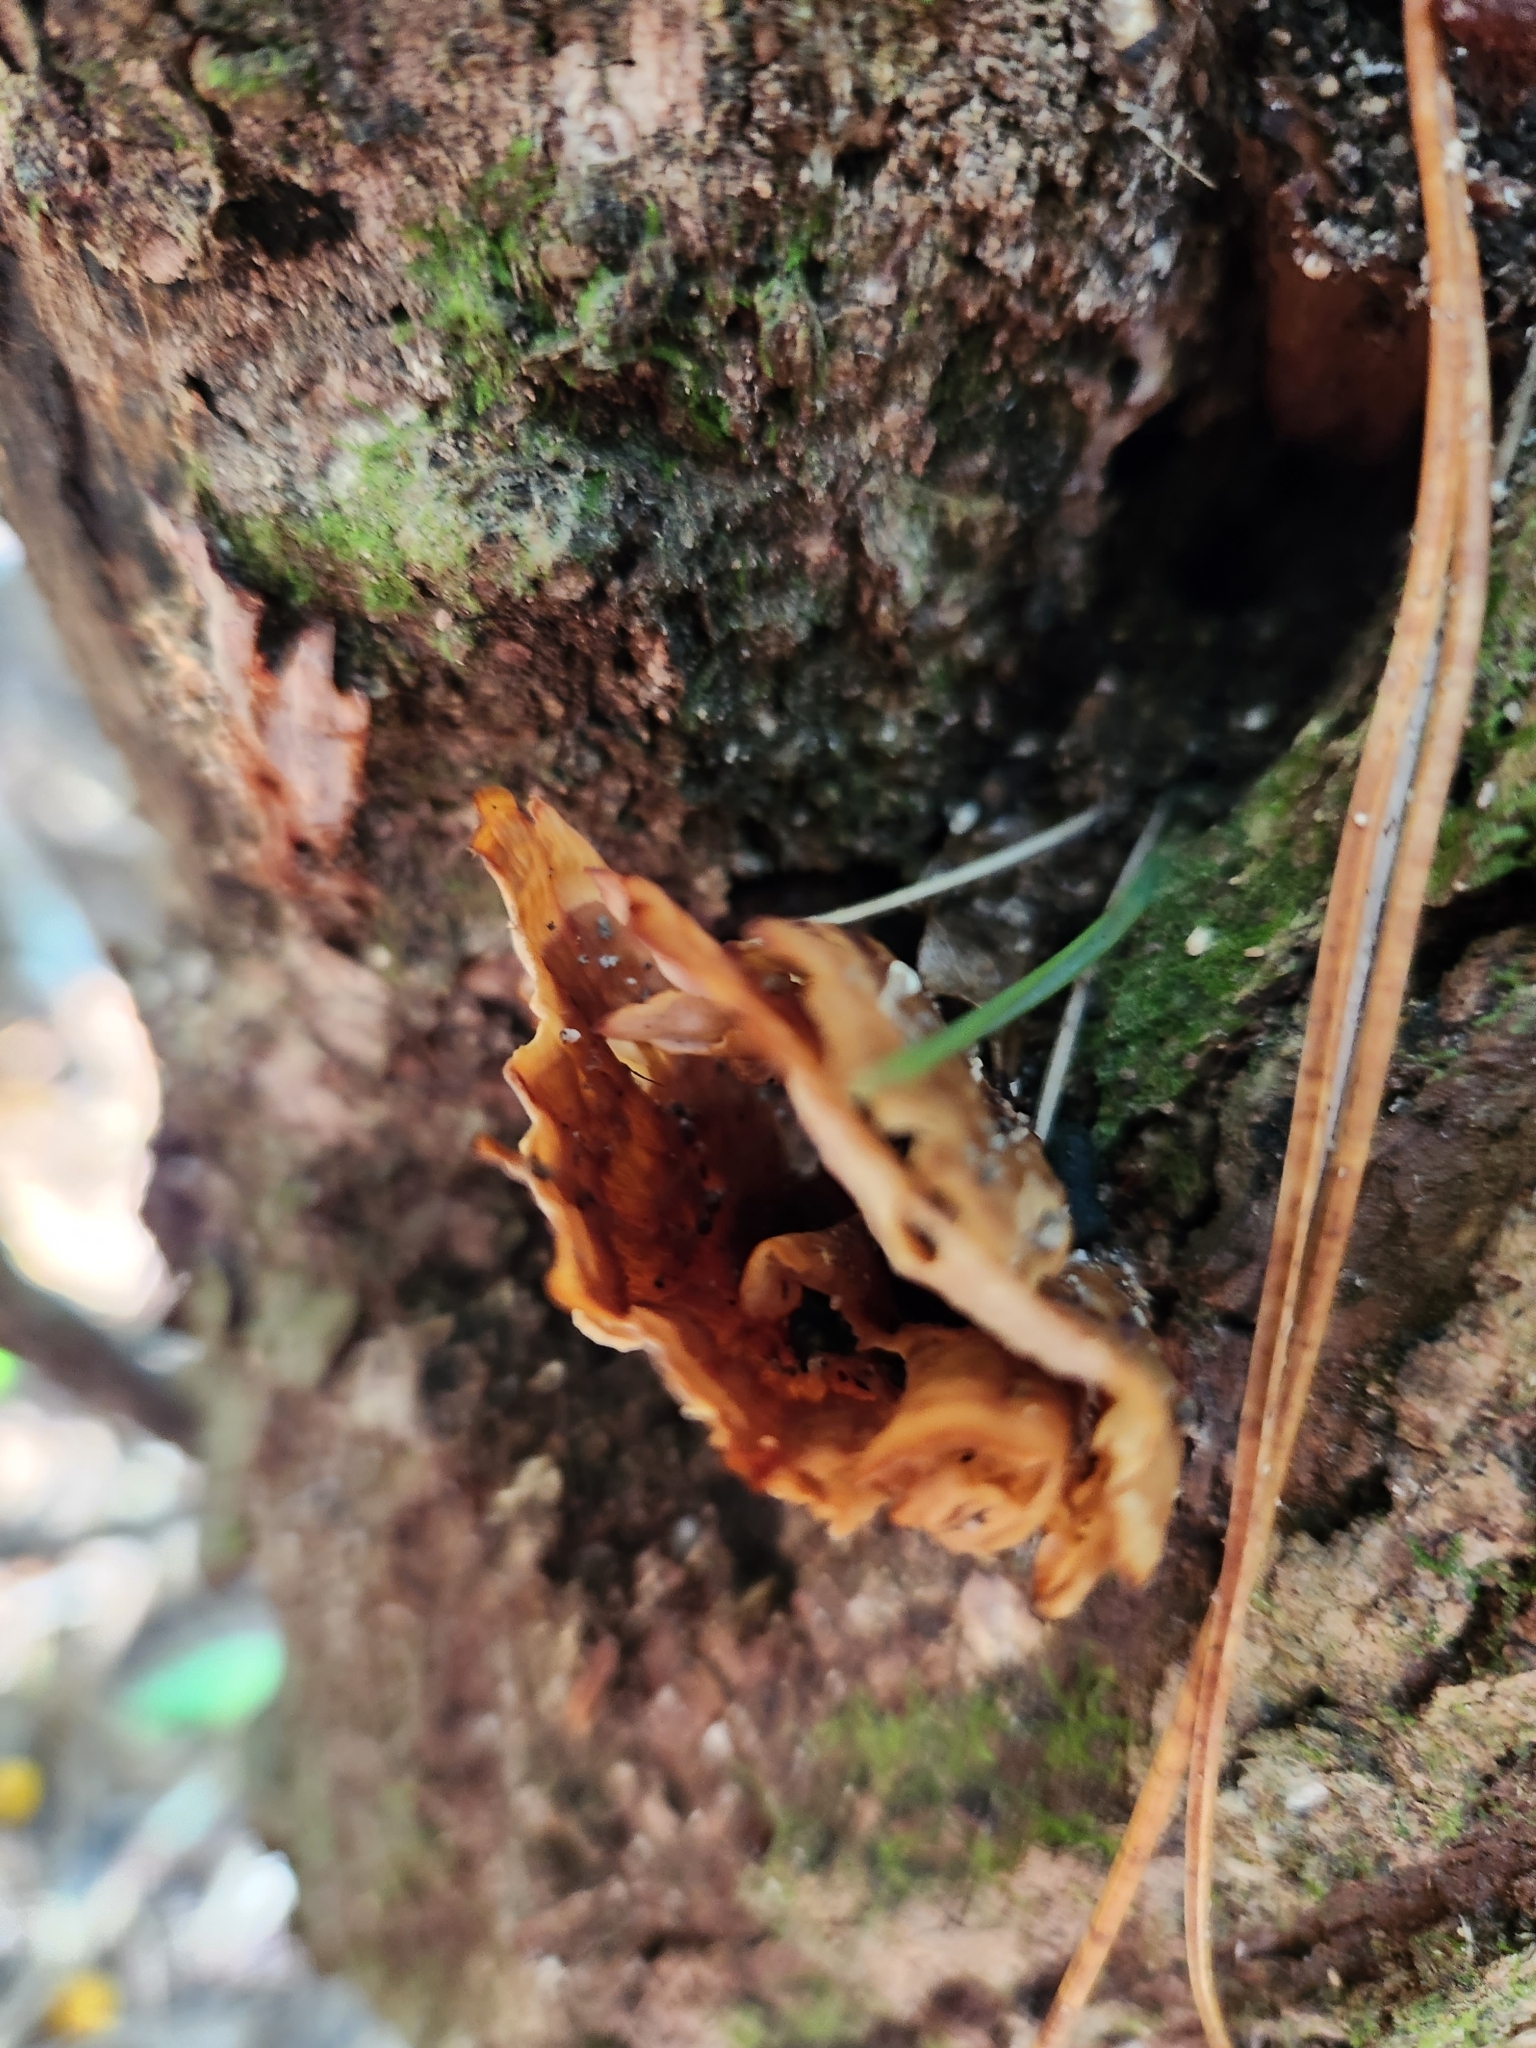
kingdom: Fungi
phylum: Basidiomycota
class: Agaricomycetes
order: Polyporales
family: Podoscyphaceae
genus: Podoscypha
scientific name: Podoscypha petalodes
